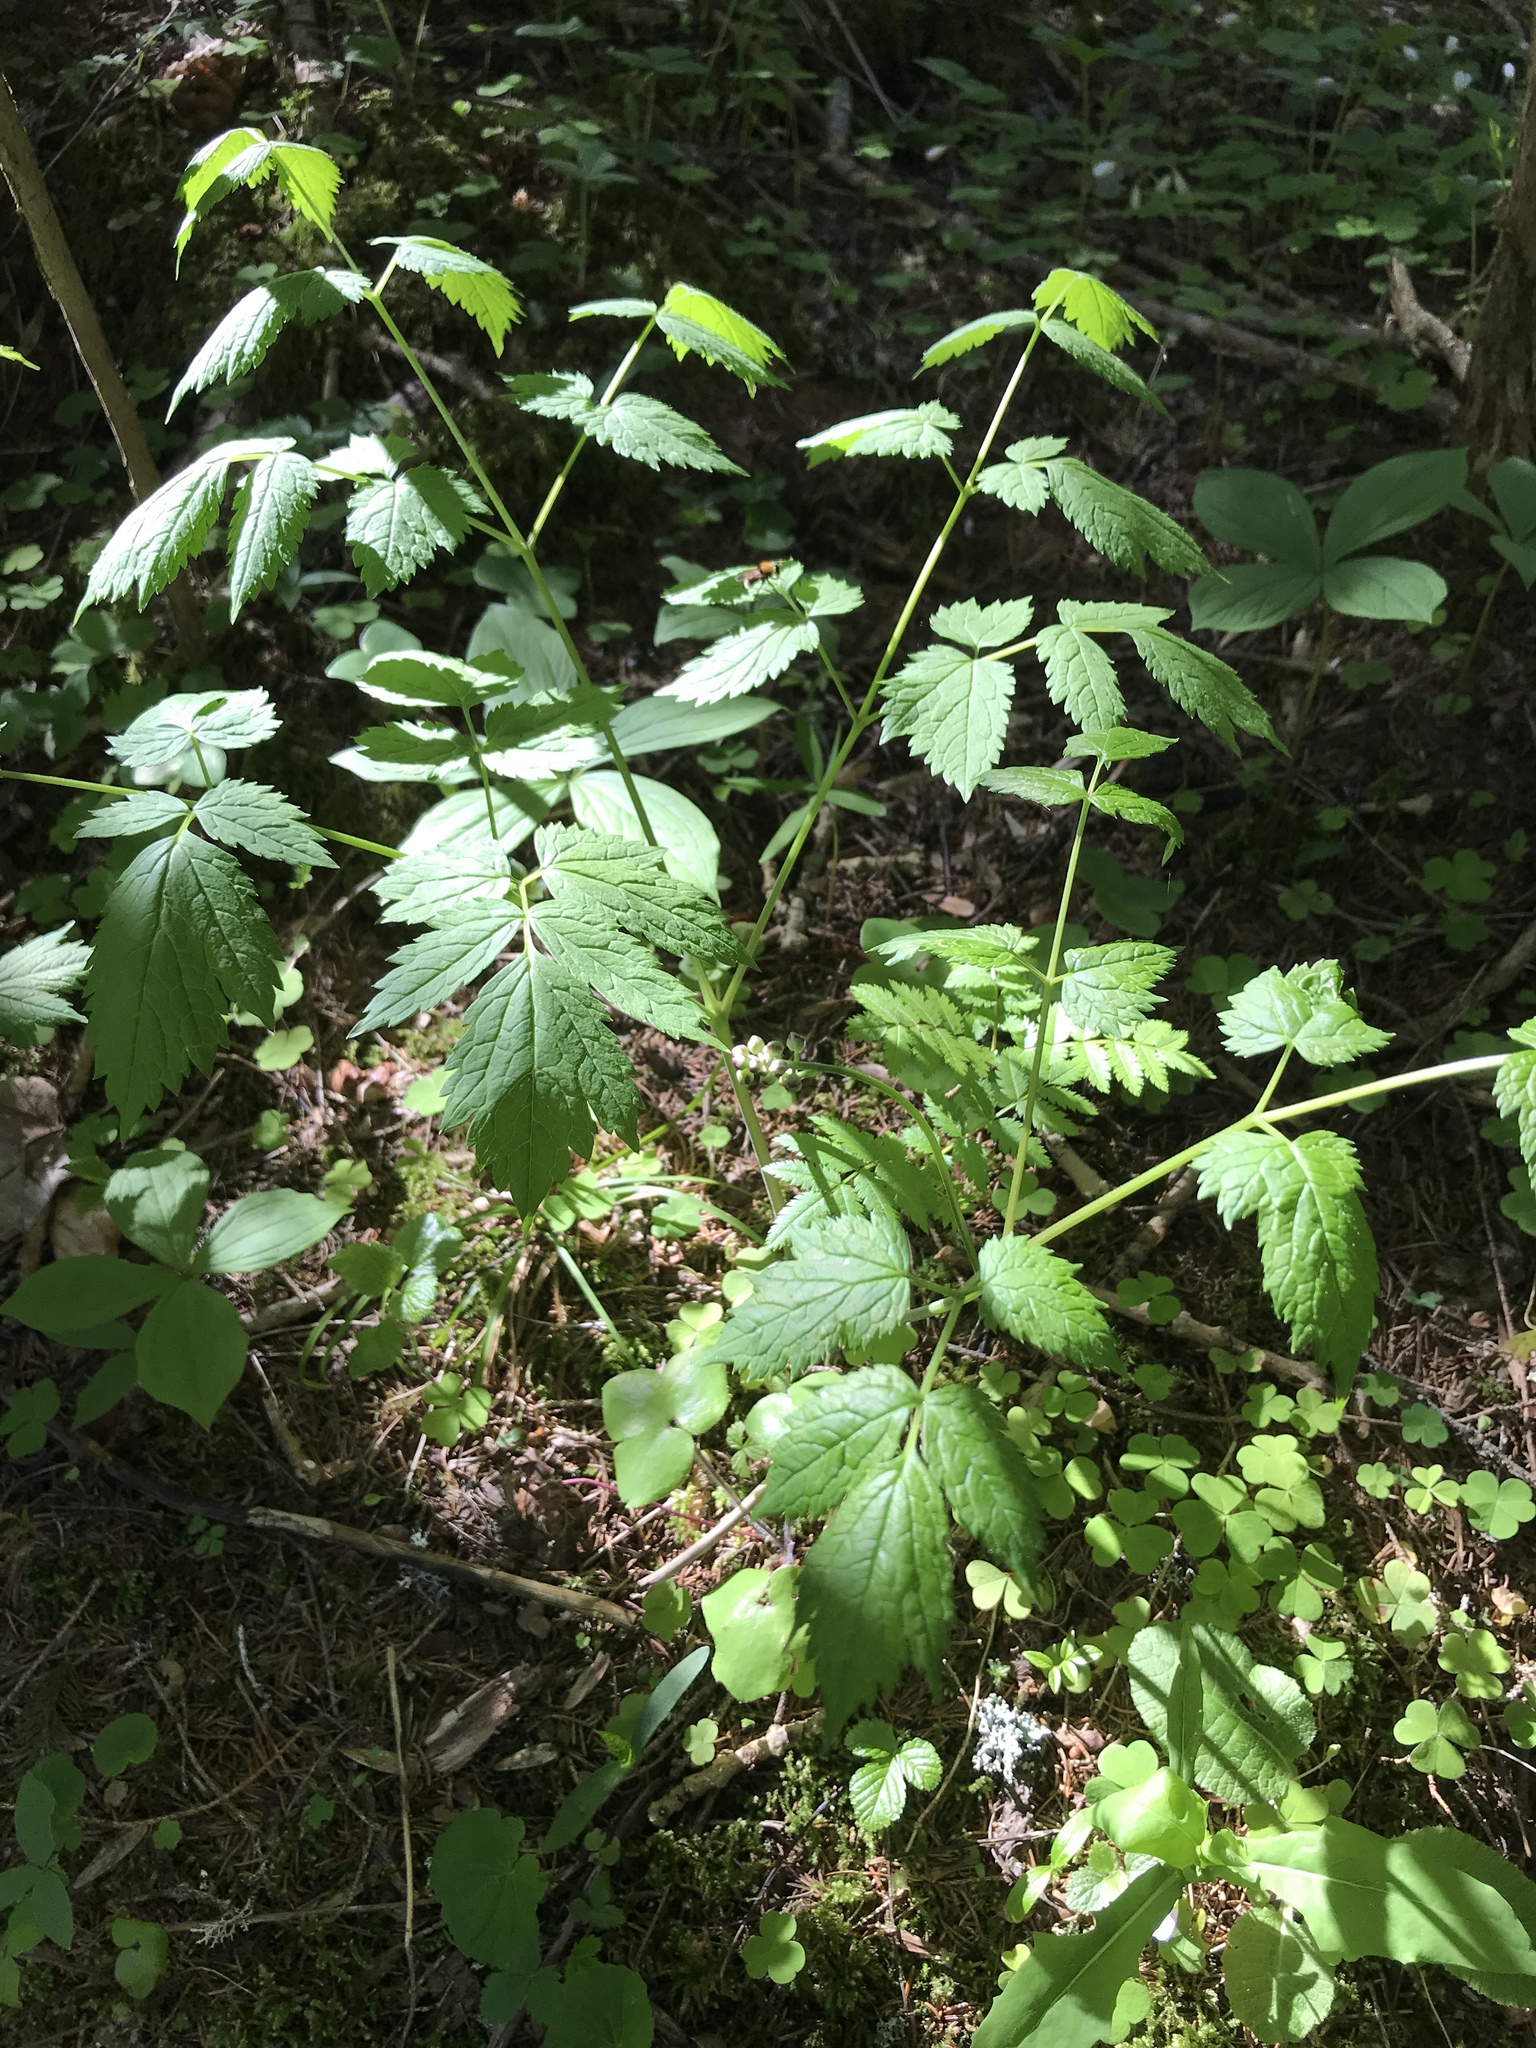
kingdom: Plantae
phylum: Tracheophyta
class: Magnoliopsida
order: Ranunculales
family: Ranunculaceae
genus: Actaea
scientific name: Actaea spicata
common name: Baneberry
